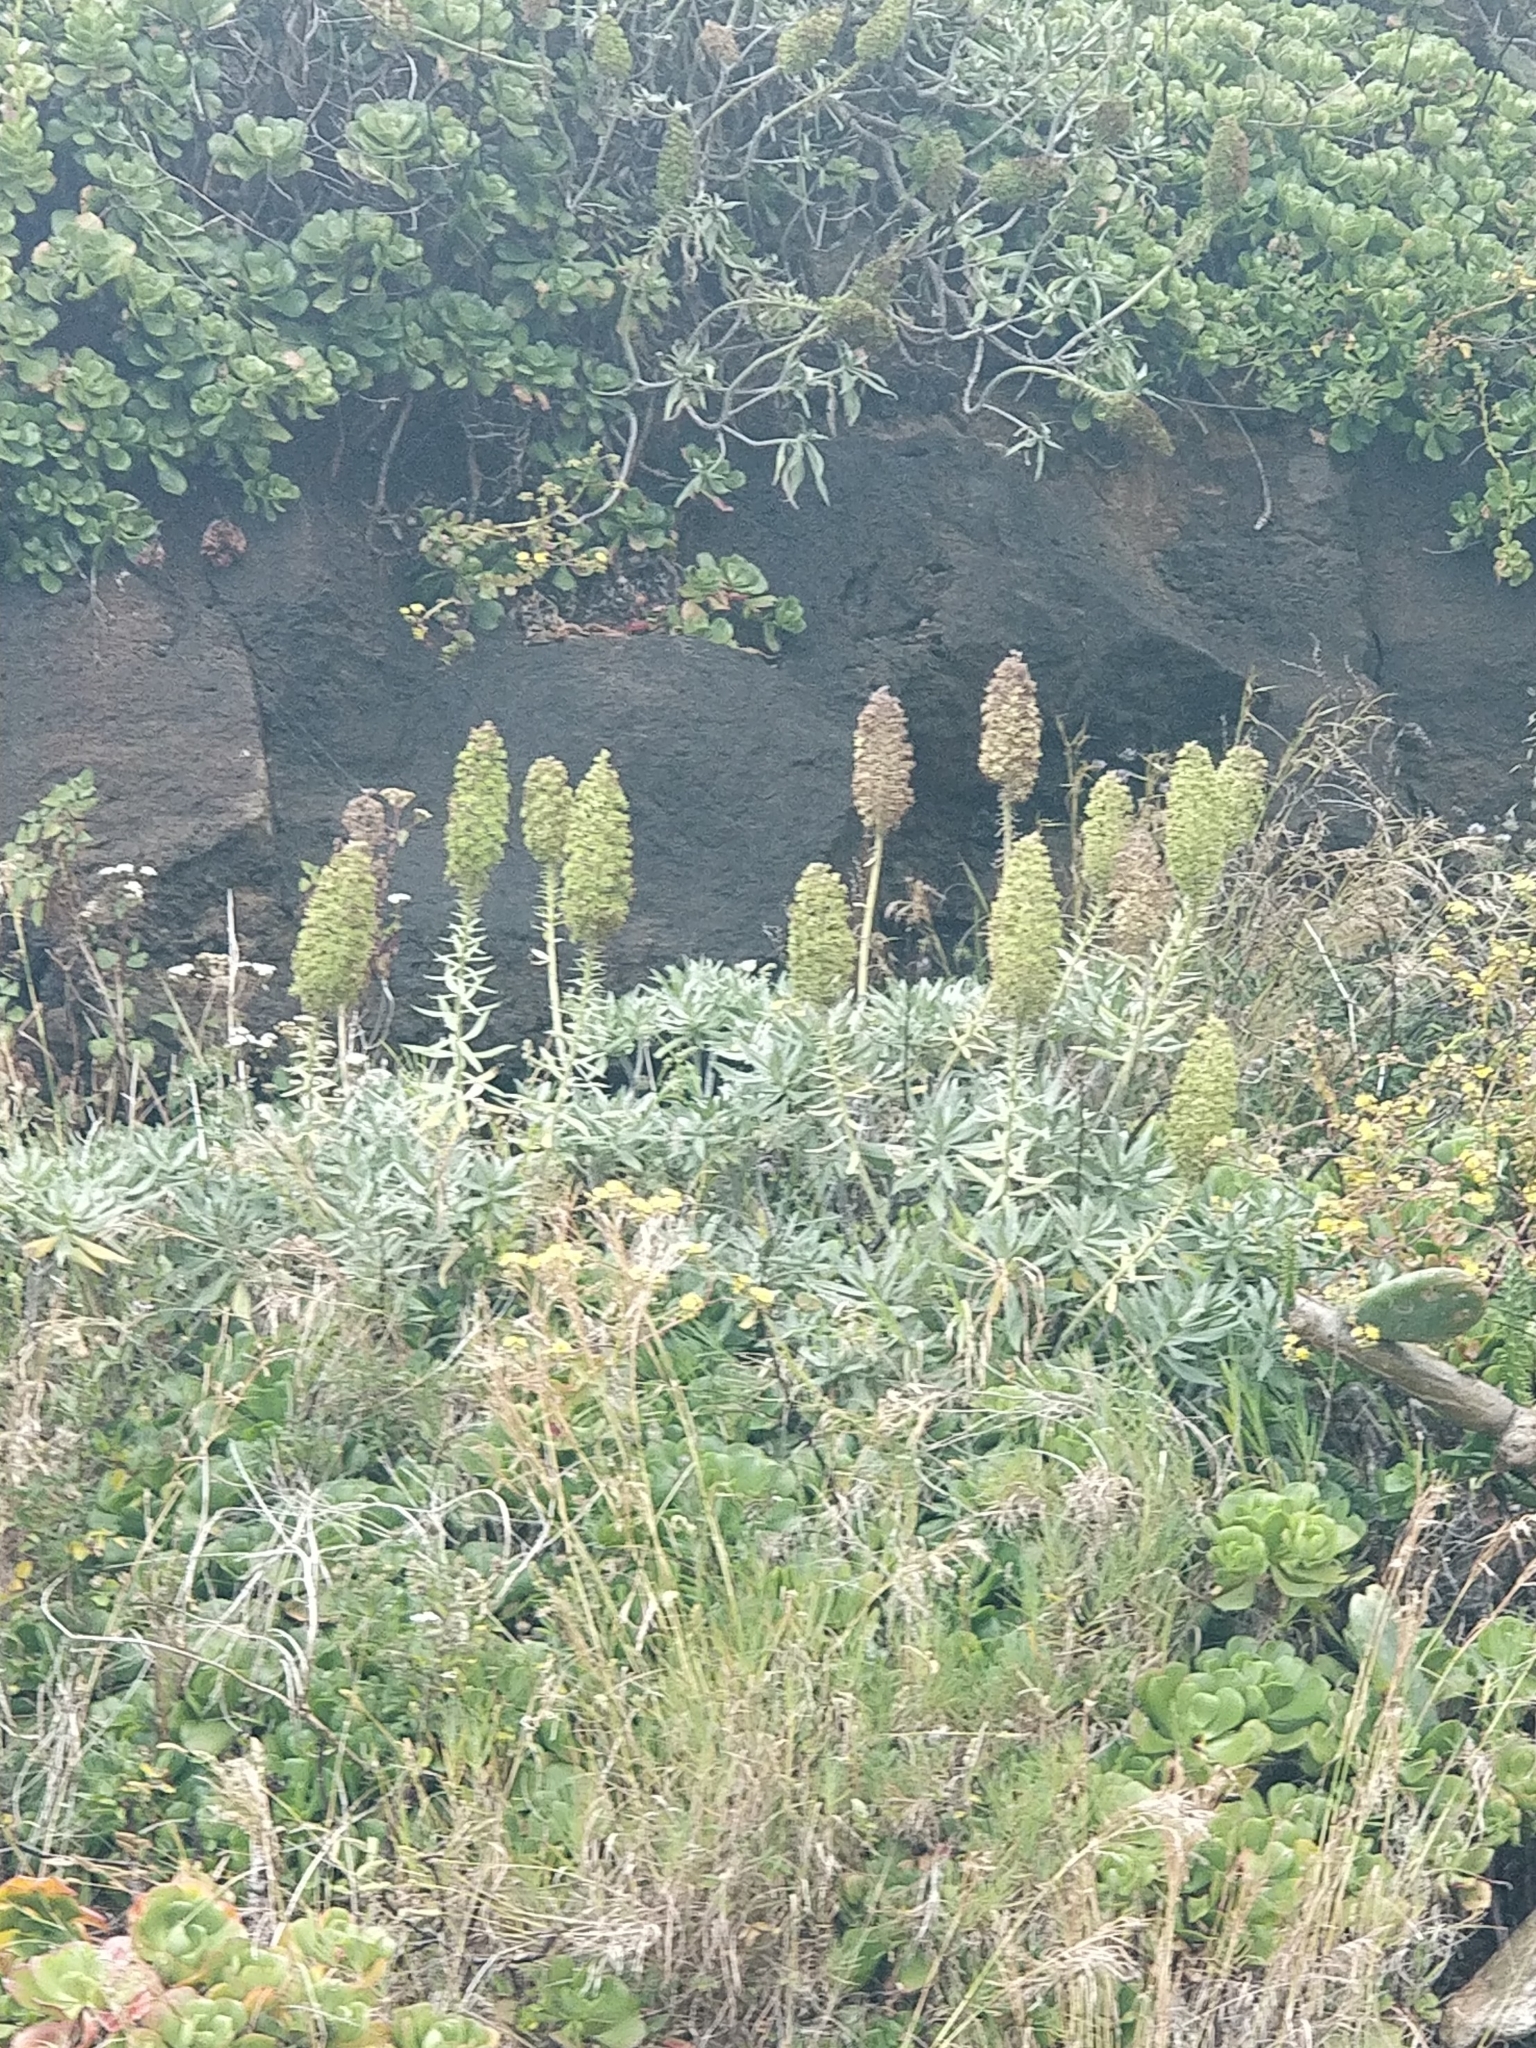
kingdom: Plantae
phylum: Tracheophyta
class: Magnoliopsida
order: Boraginales
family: Boraginaceae
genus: Echium
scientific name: Echium nervosum
